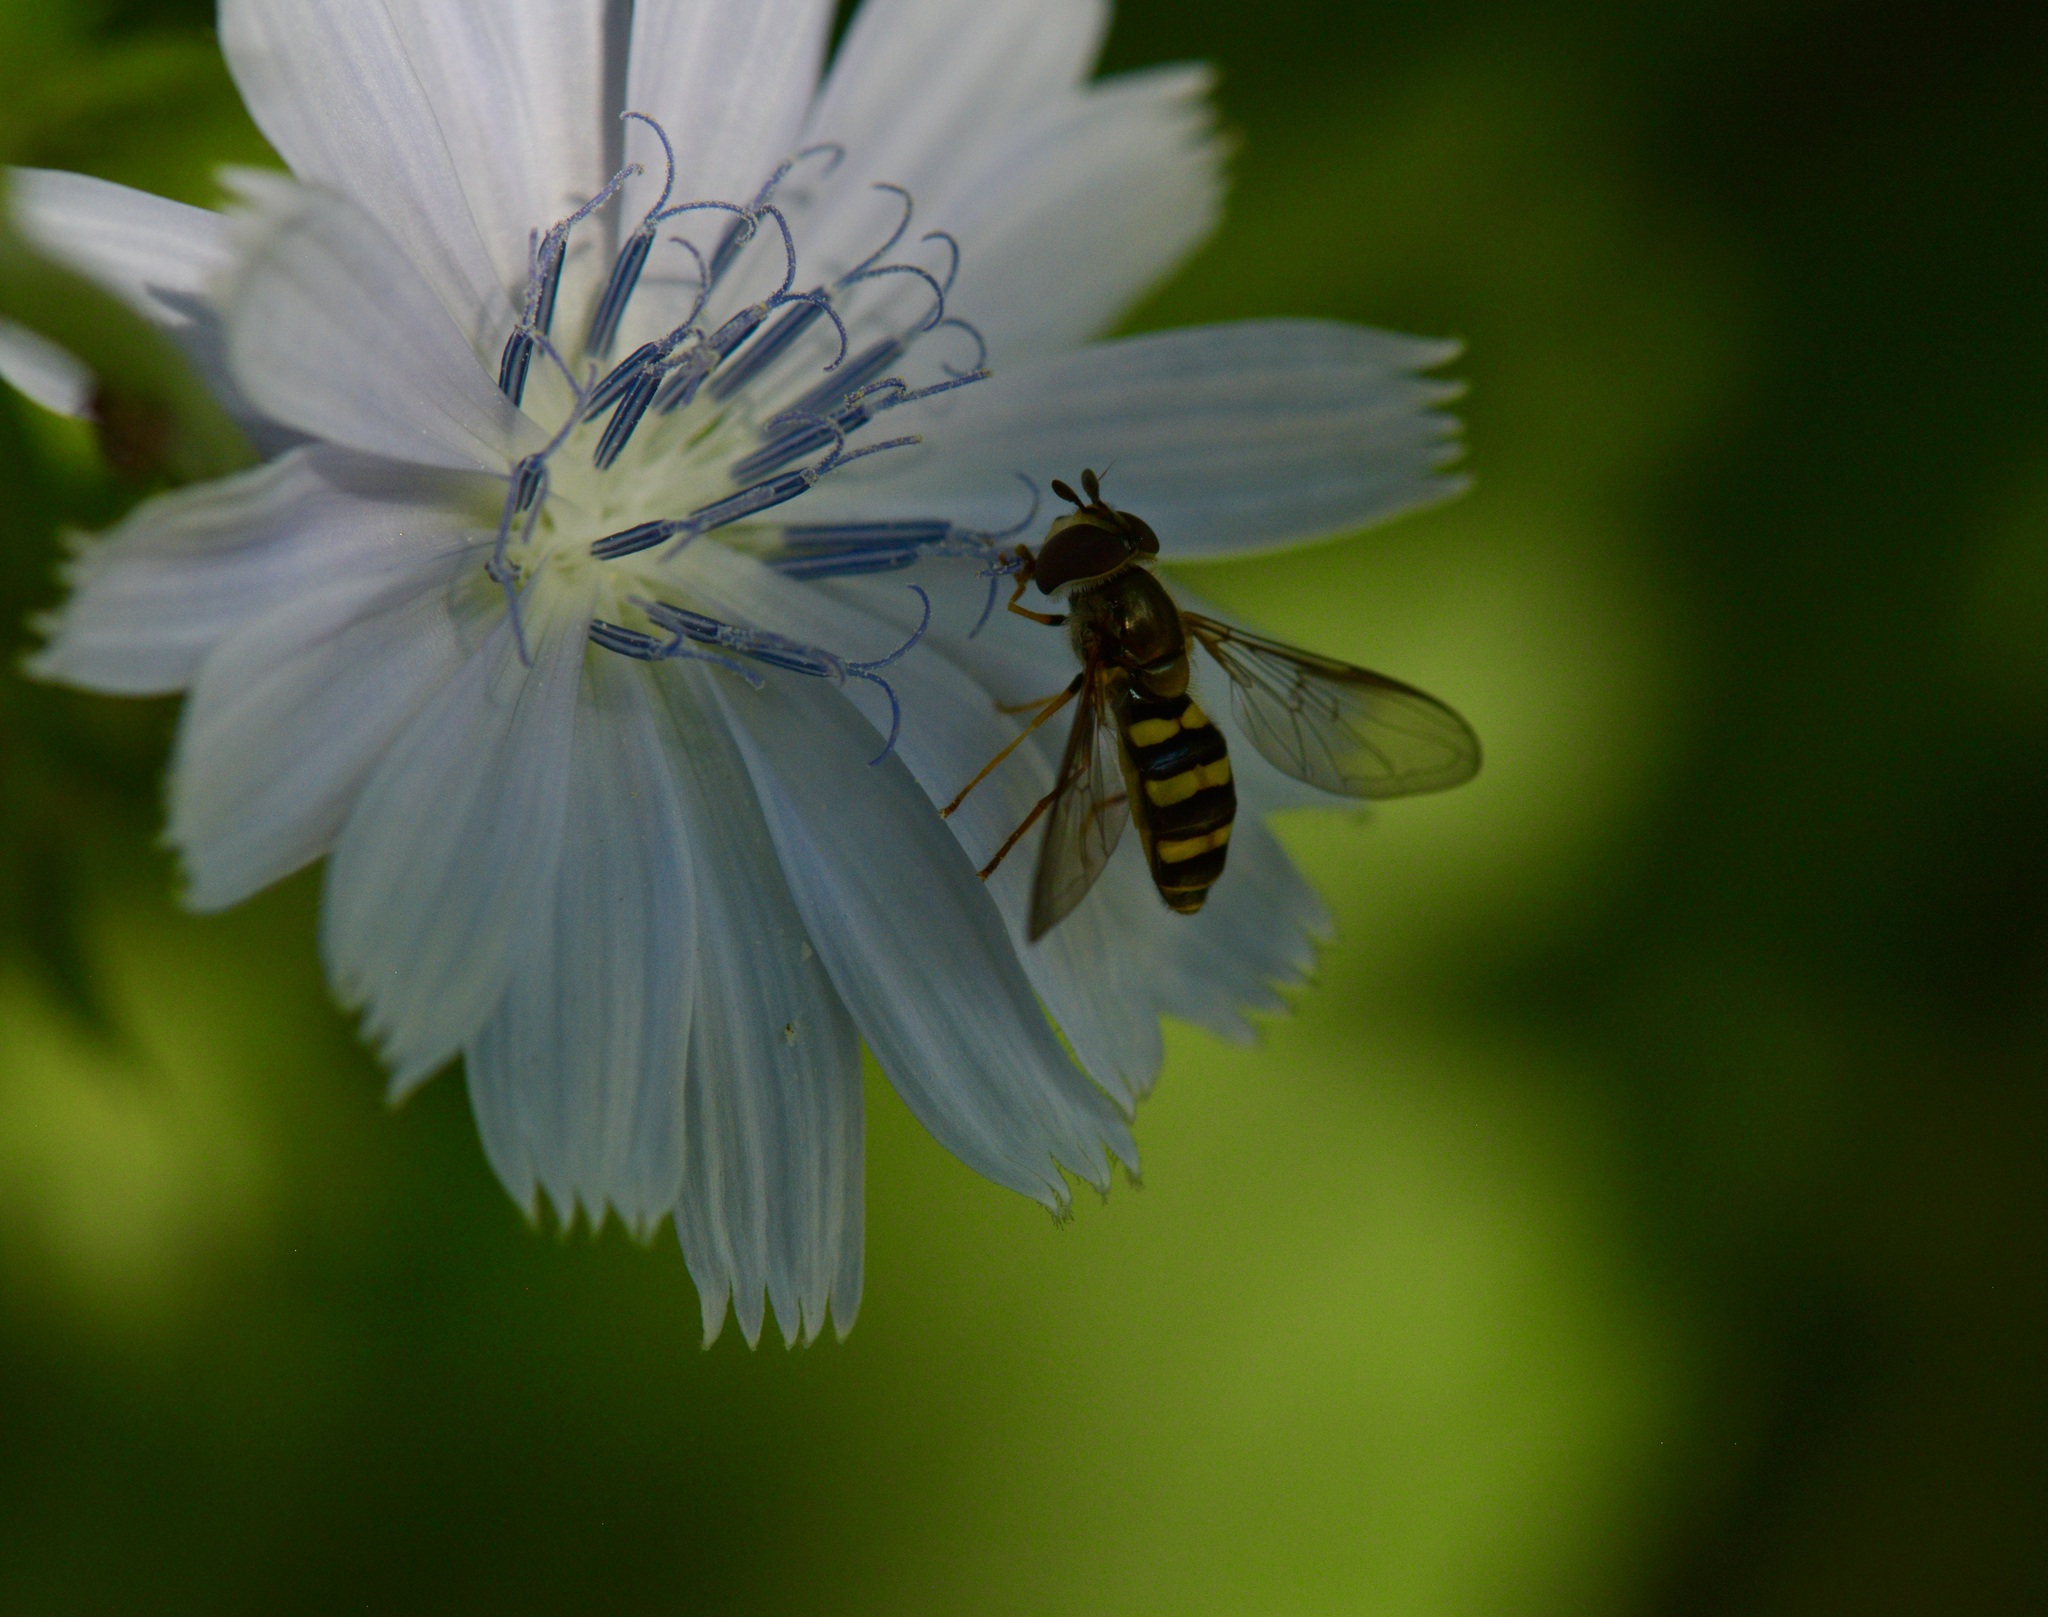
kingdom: Animalia
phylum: Arthropoda
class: Insecta
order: Diptera
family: Syrphidae
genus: Eupeodes
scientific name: Eupeodes
